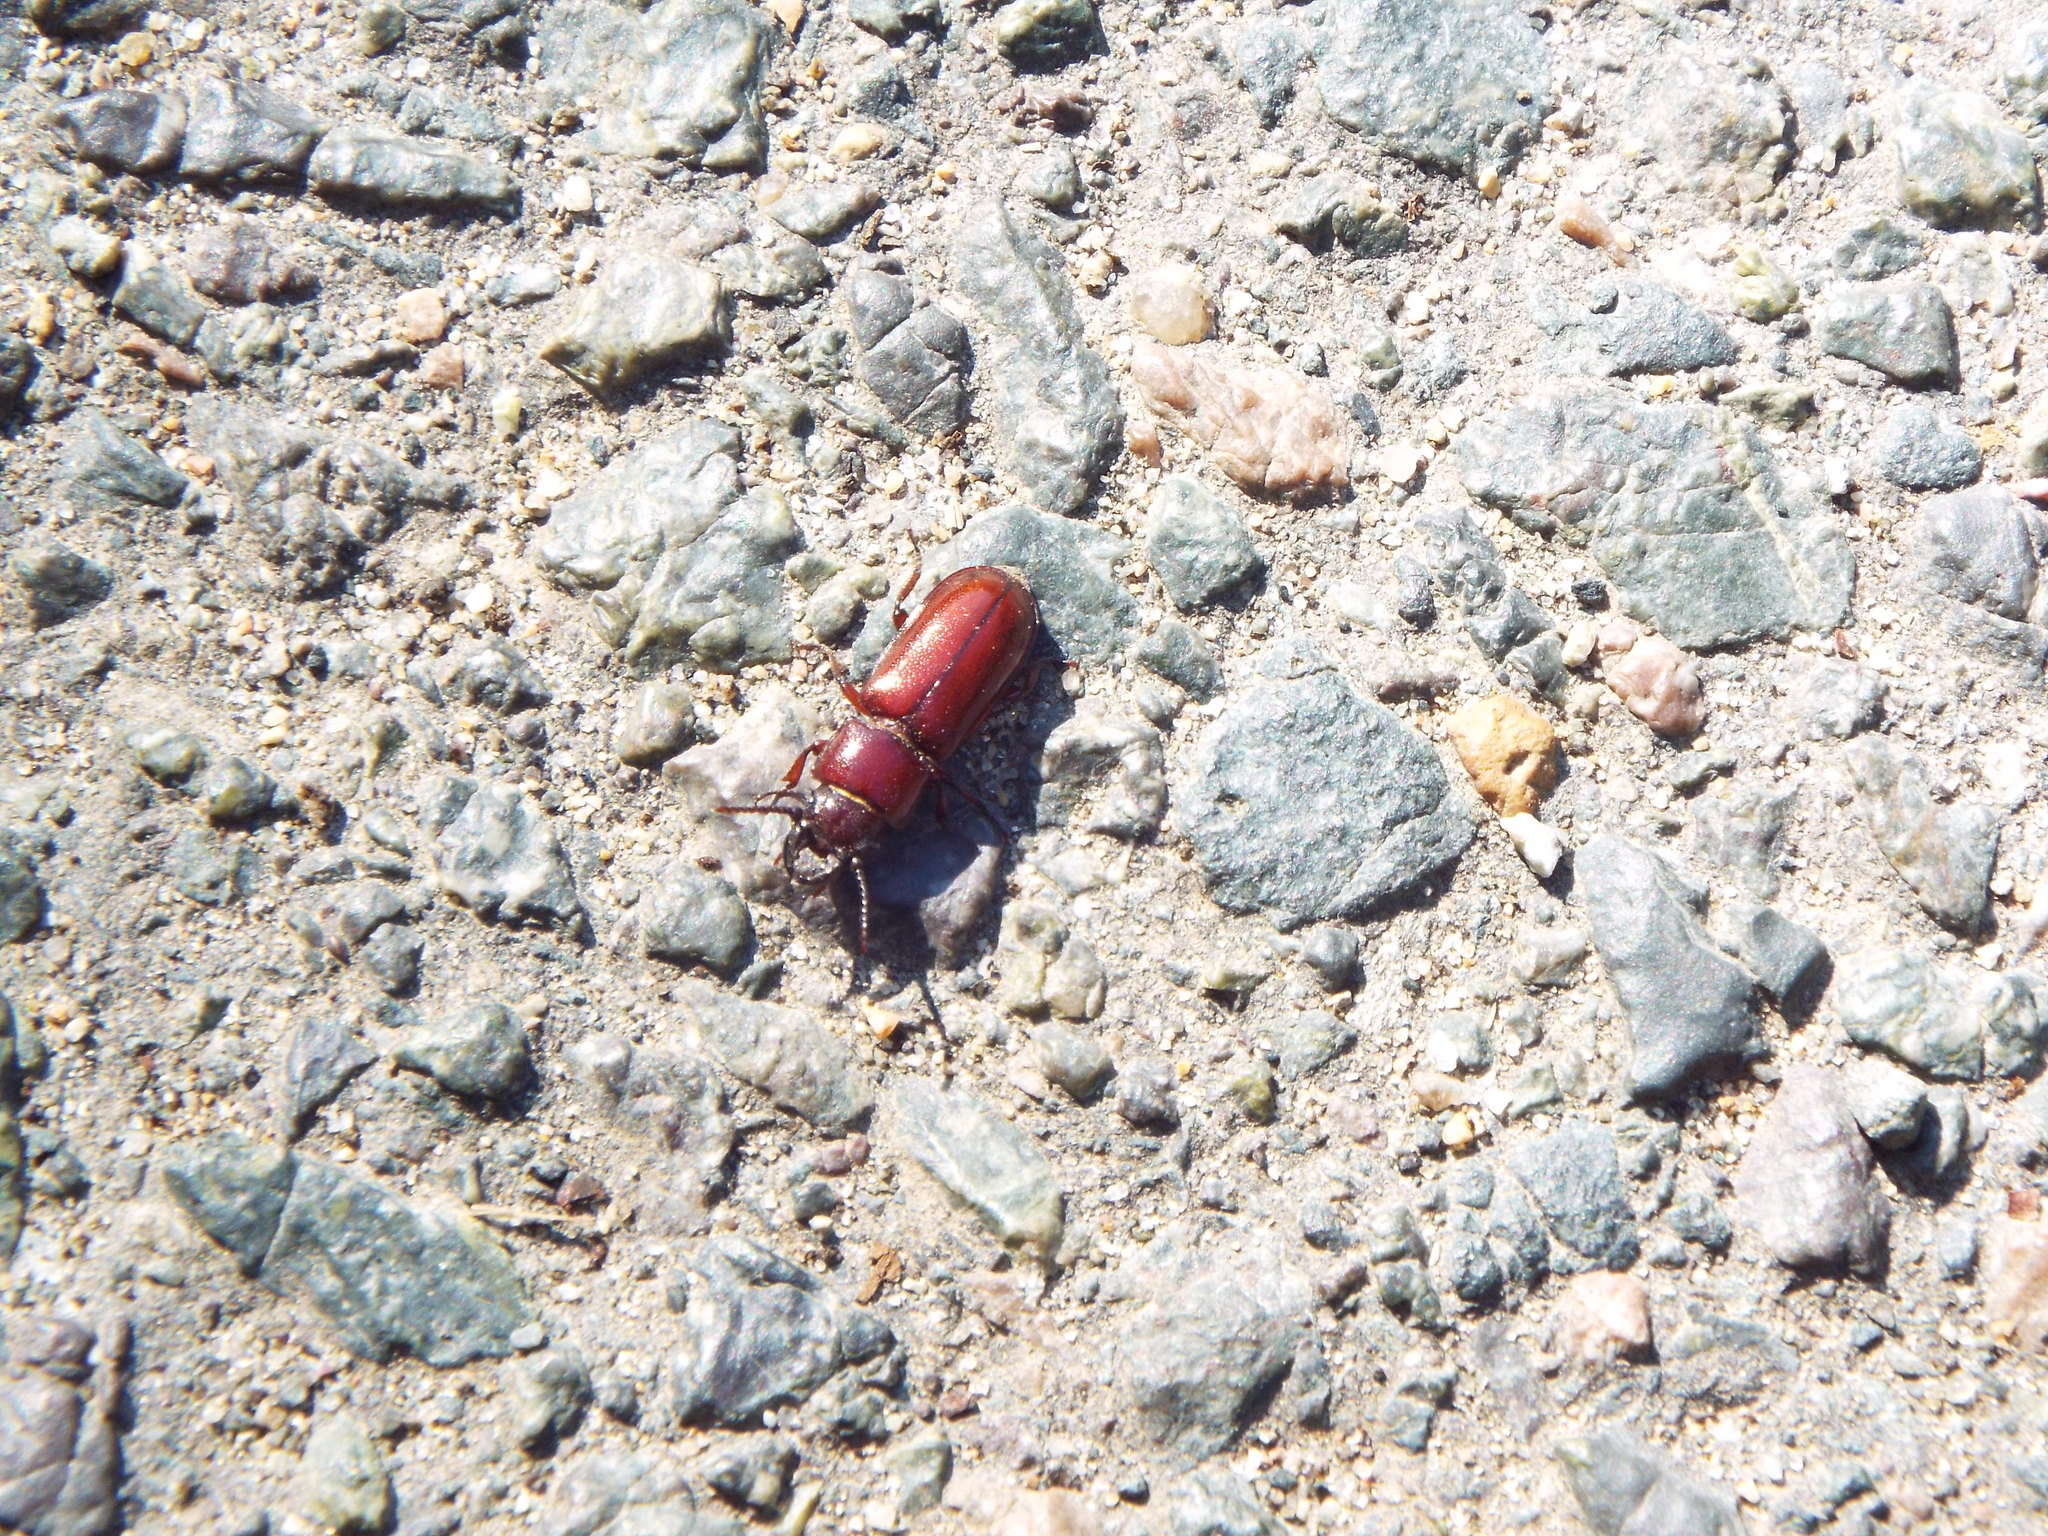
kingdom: Animalia
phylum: Arthropoda
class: Insecta
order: Coleoptera
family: Cerambycidae
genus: Neandra
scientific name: Neandra brunnea
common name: Pole borer
